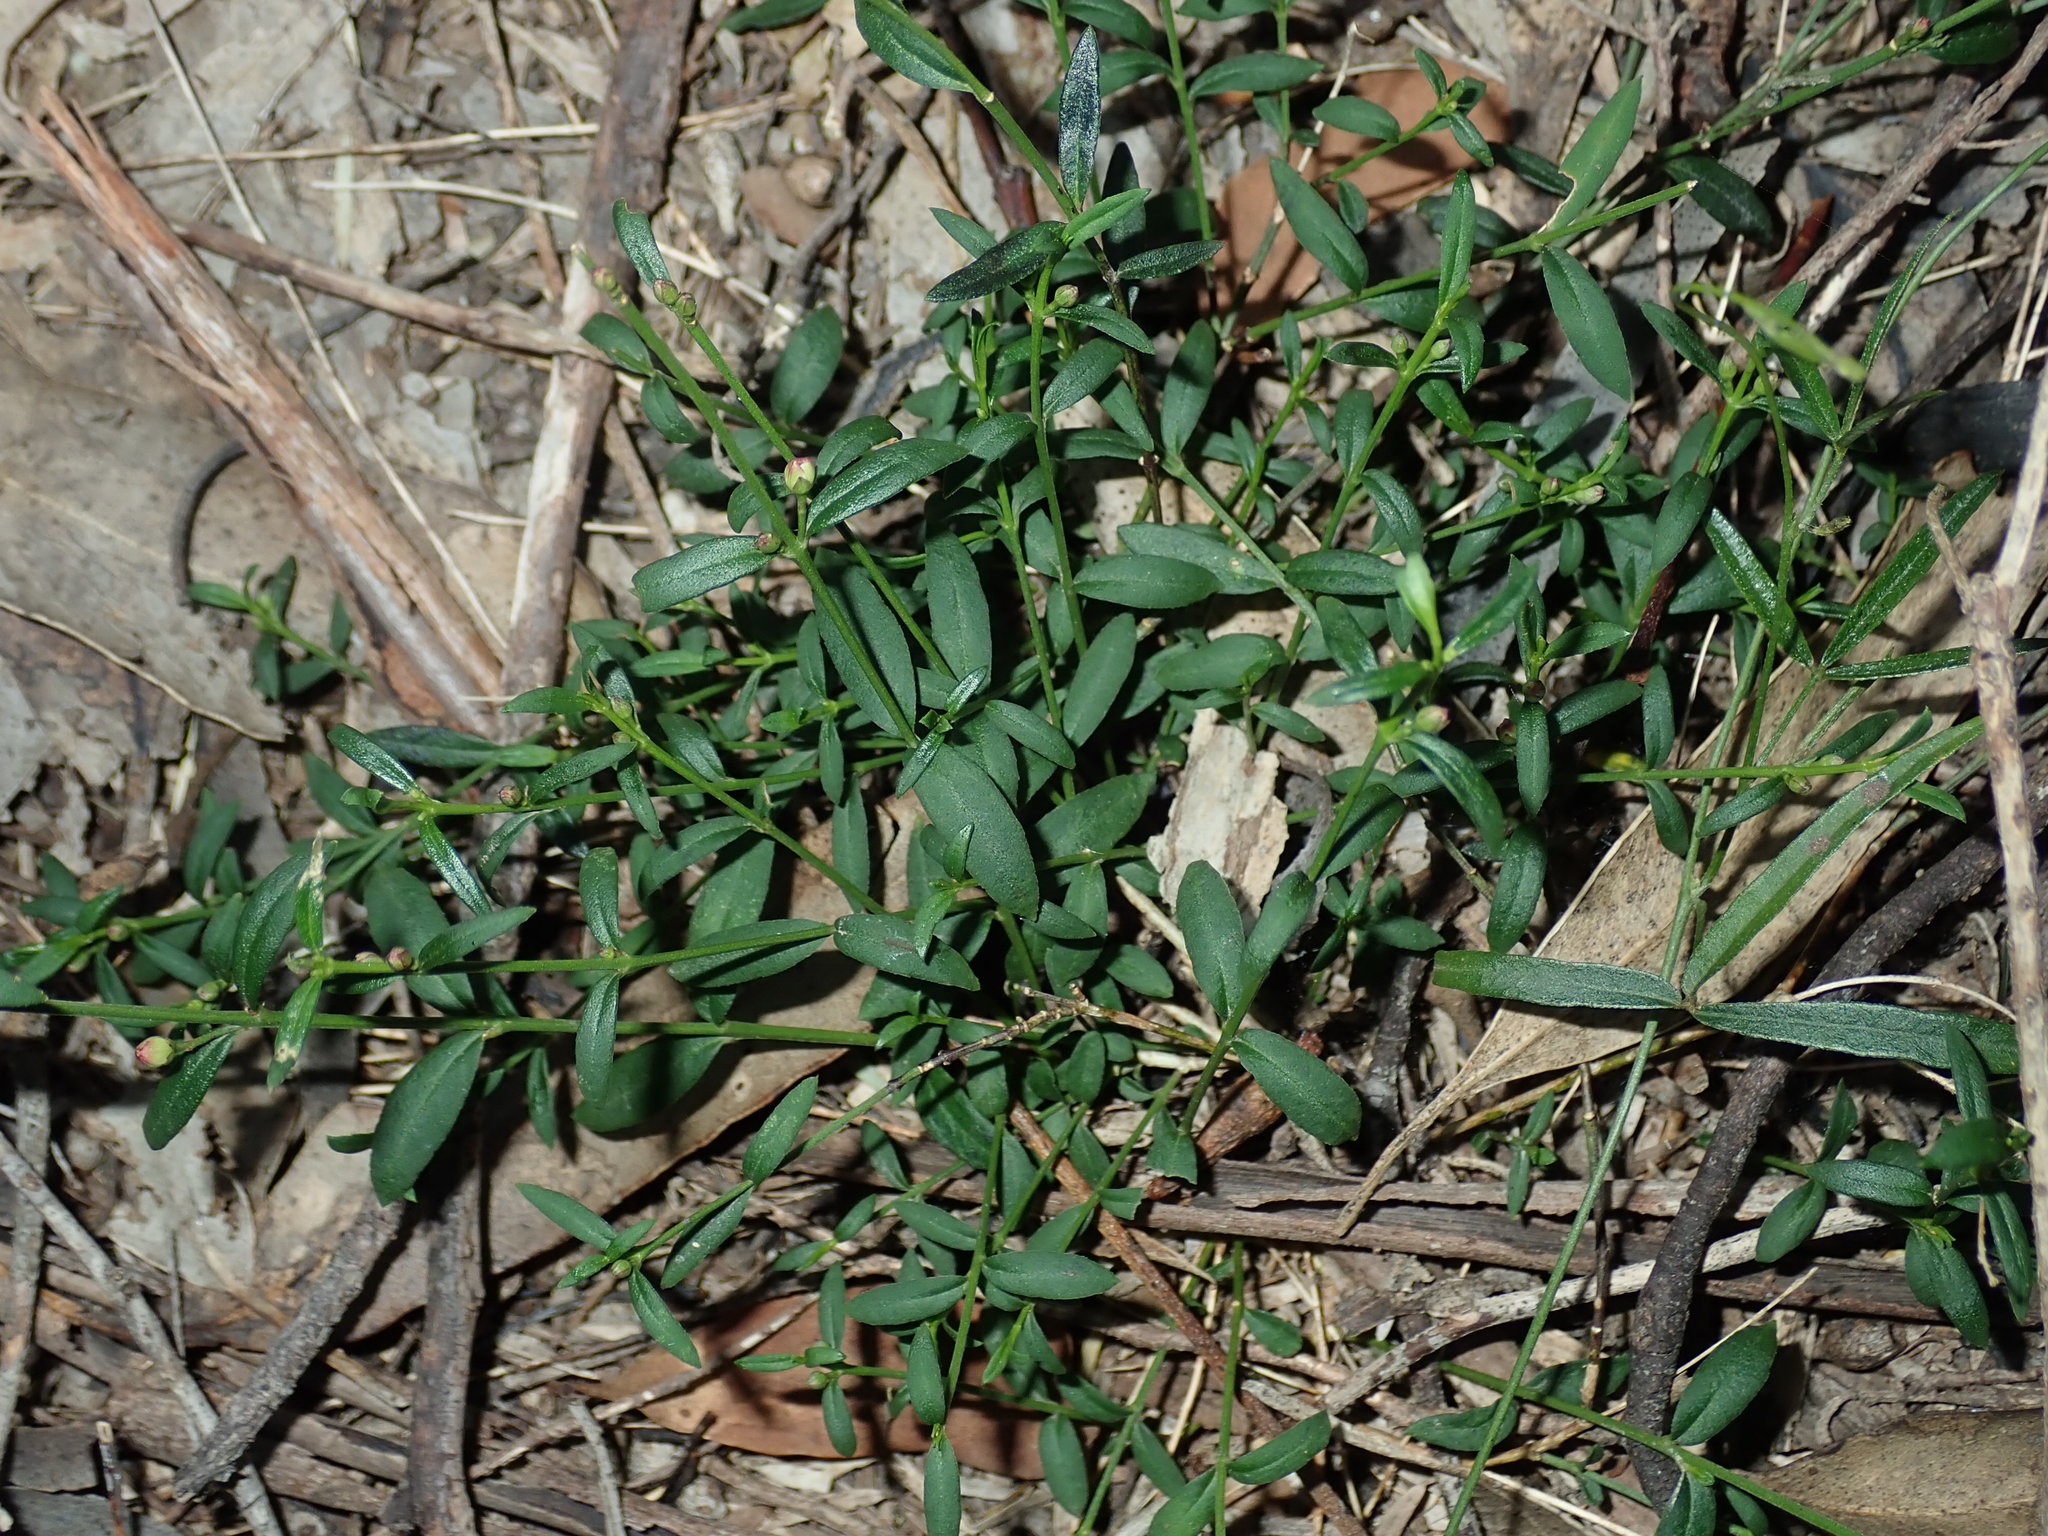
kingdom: Plantae
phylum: Tracheophyta
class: Magnoliopsida
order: Sapindales
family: Rutaceae
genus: Cyanothamnus
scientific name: Cyanothamnus polygalifolius
